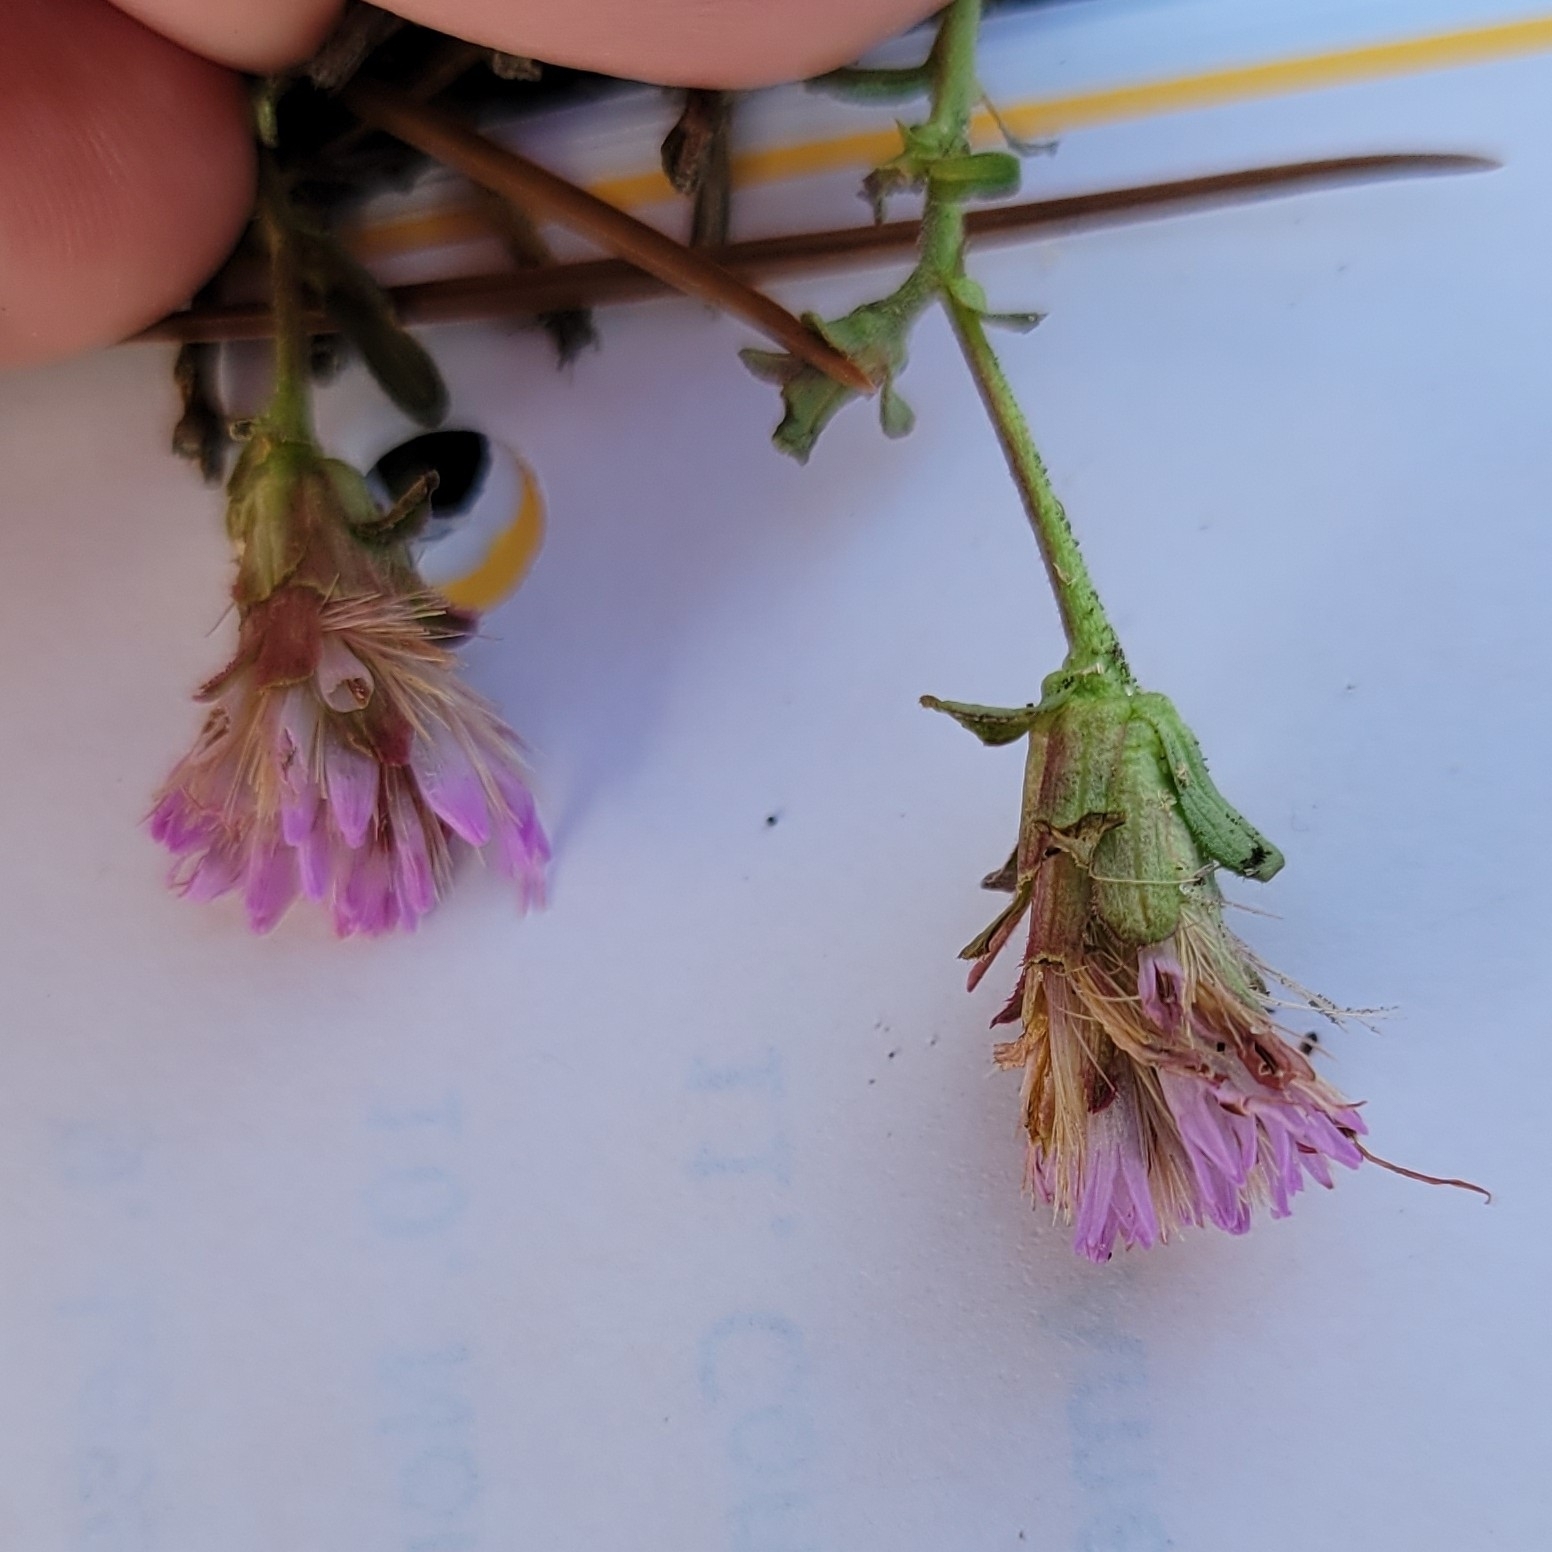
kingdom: Plantae
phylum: Tracheophyta
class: Magnoliopsida
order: Asterales
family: Asteraceae
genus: Carphephorus
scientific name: Carphephorus bellidifolius
